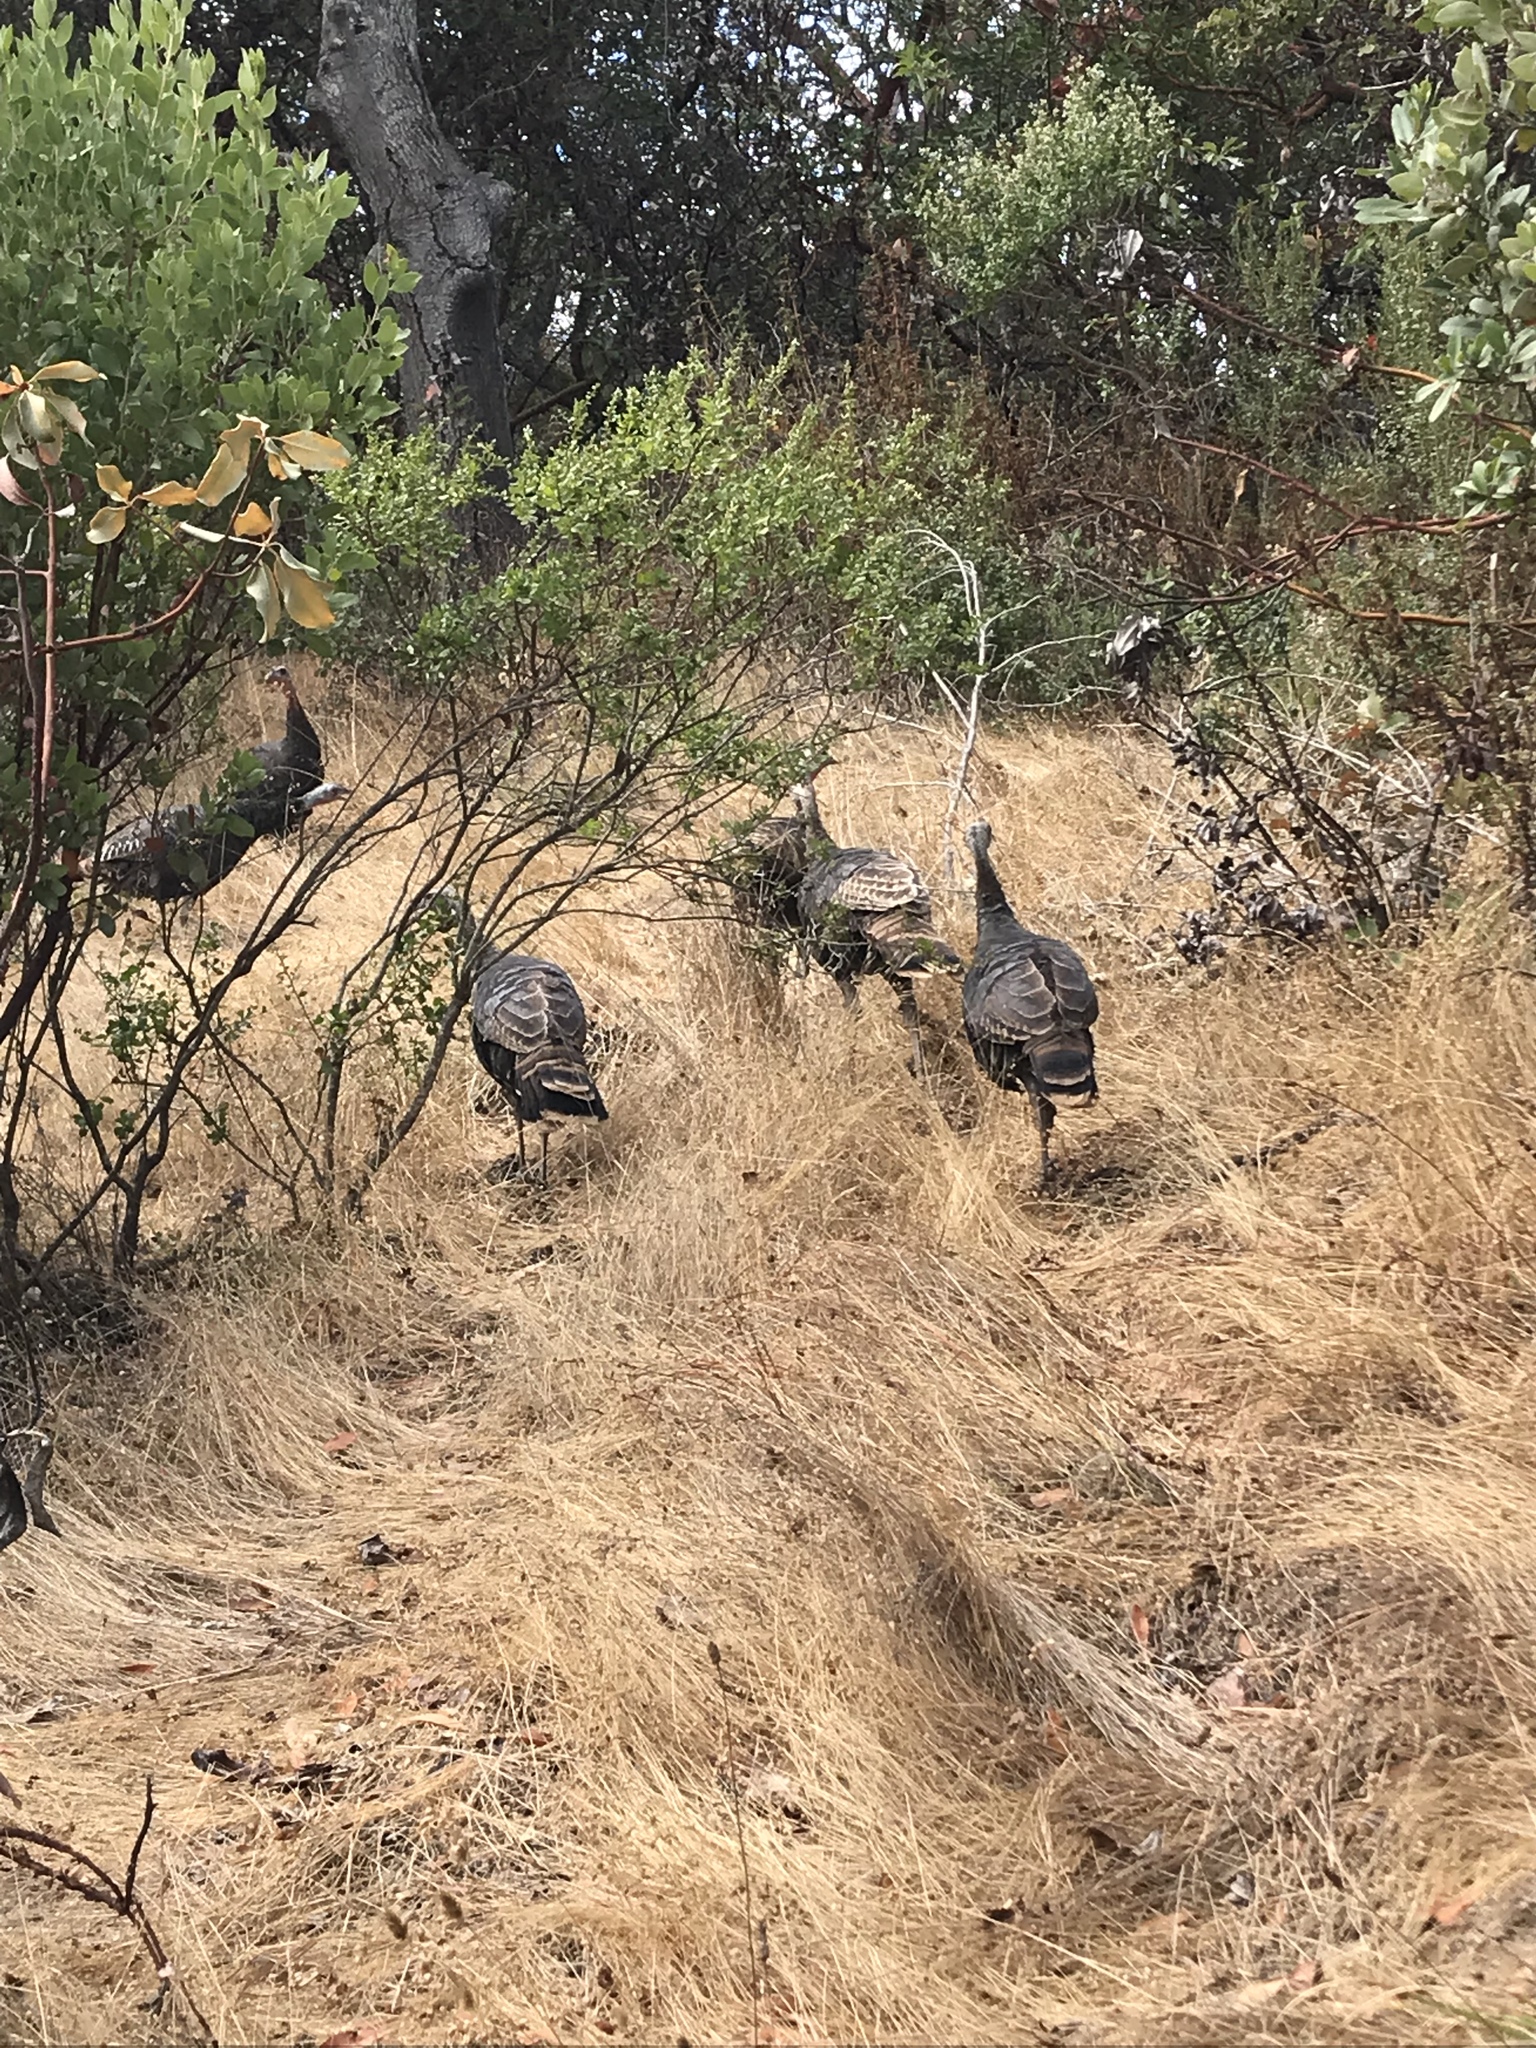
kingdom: Animalia
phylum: Chordata
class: Aves
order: Galliformes
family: Phasianidae
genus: Meleagris
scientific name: Meleagris gallopavo
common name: Wild turkey
